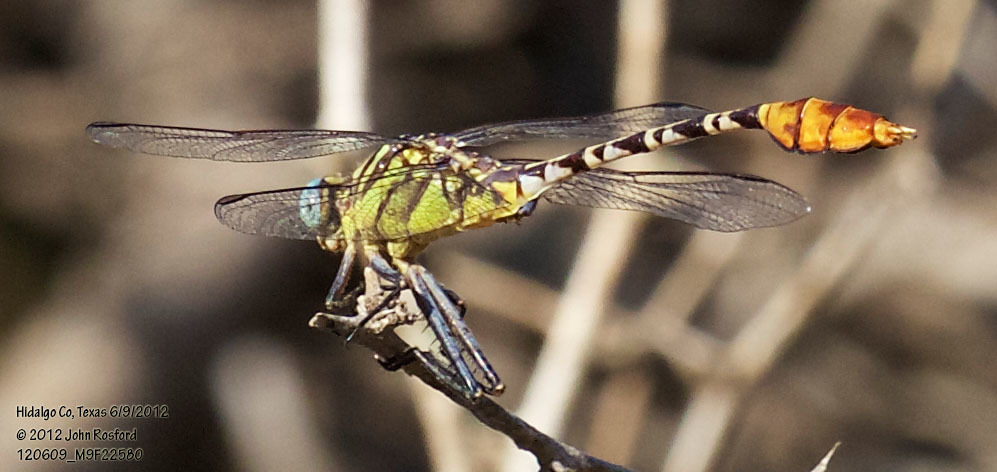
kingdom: Animalia
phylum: Arthropoda
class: Insecta
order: Odonata
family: Gomphidae
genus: Dromogomphus
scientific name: Dromogomphus spoliatus
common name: Flag-tailed spinyleg
